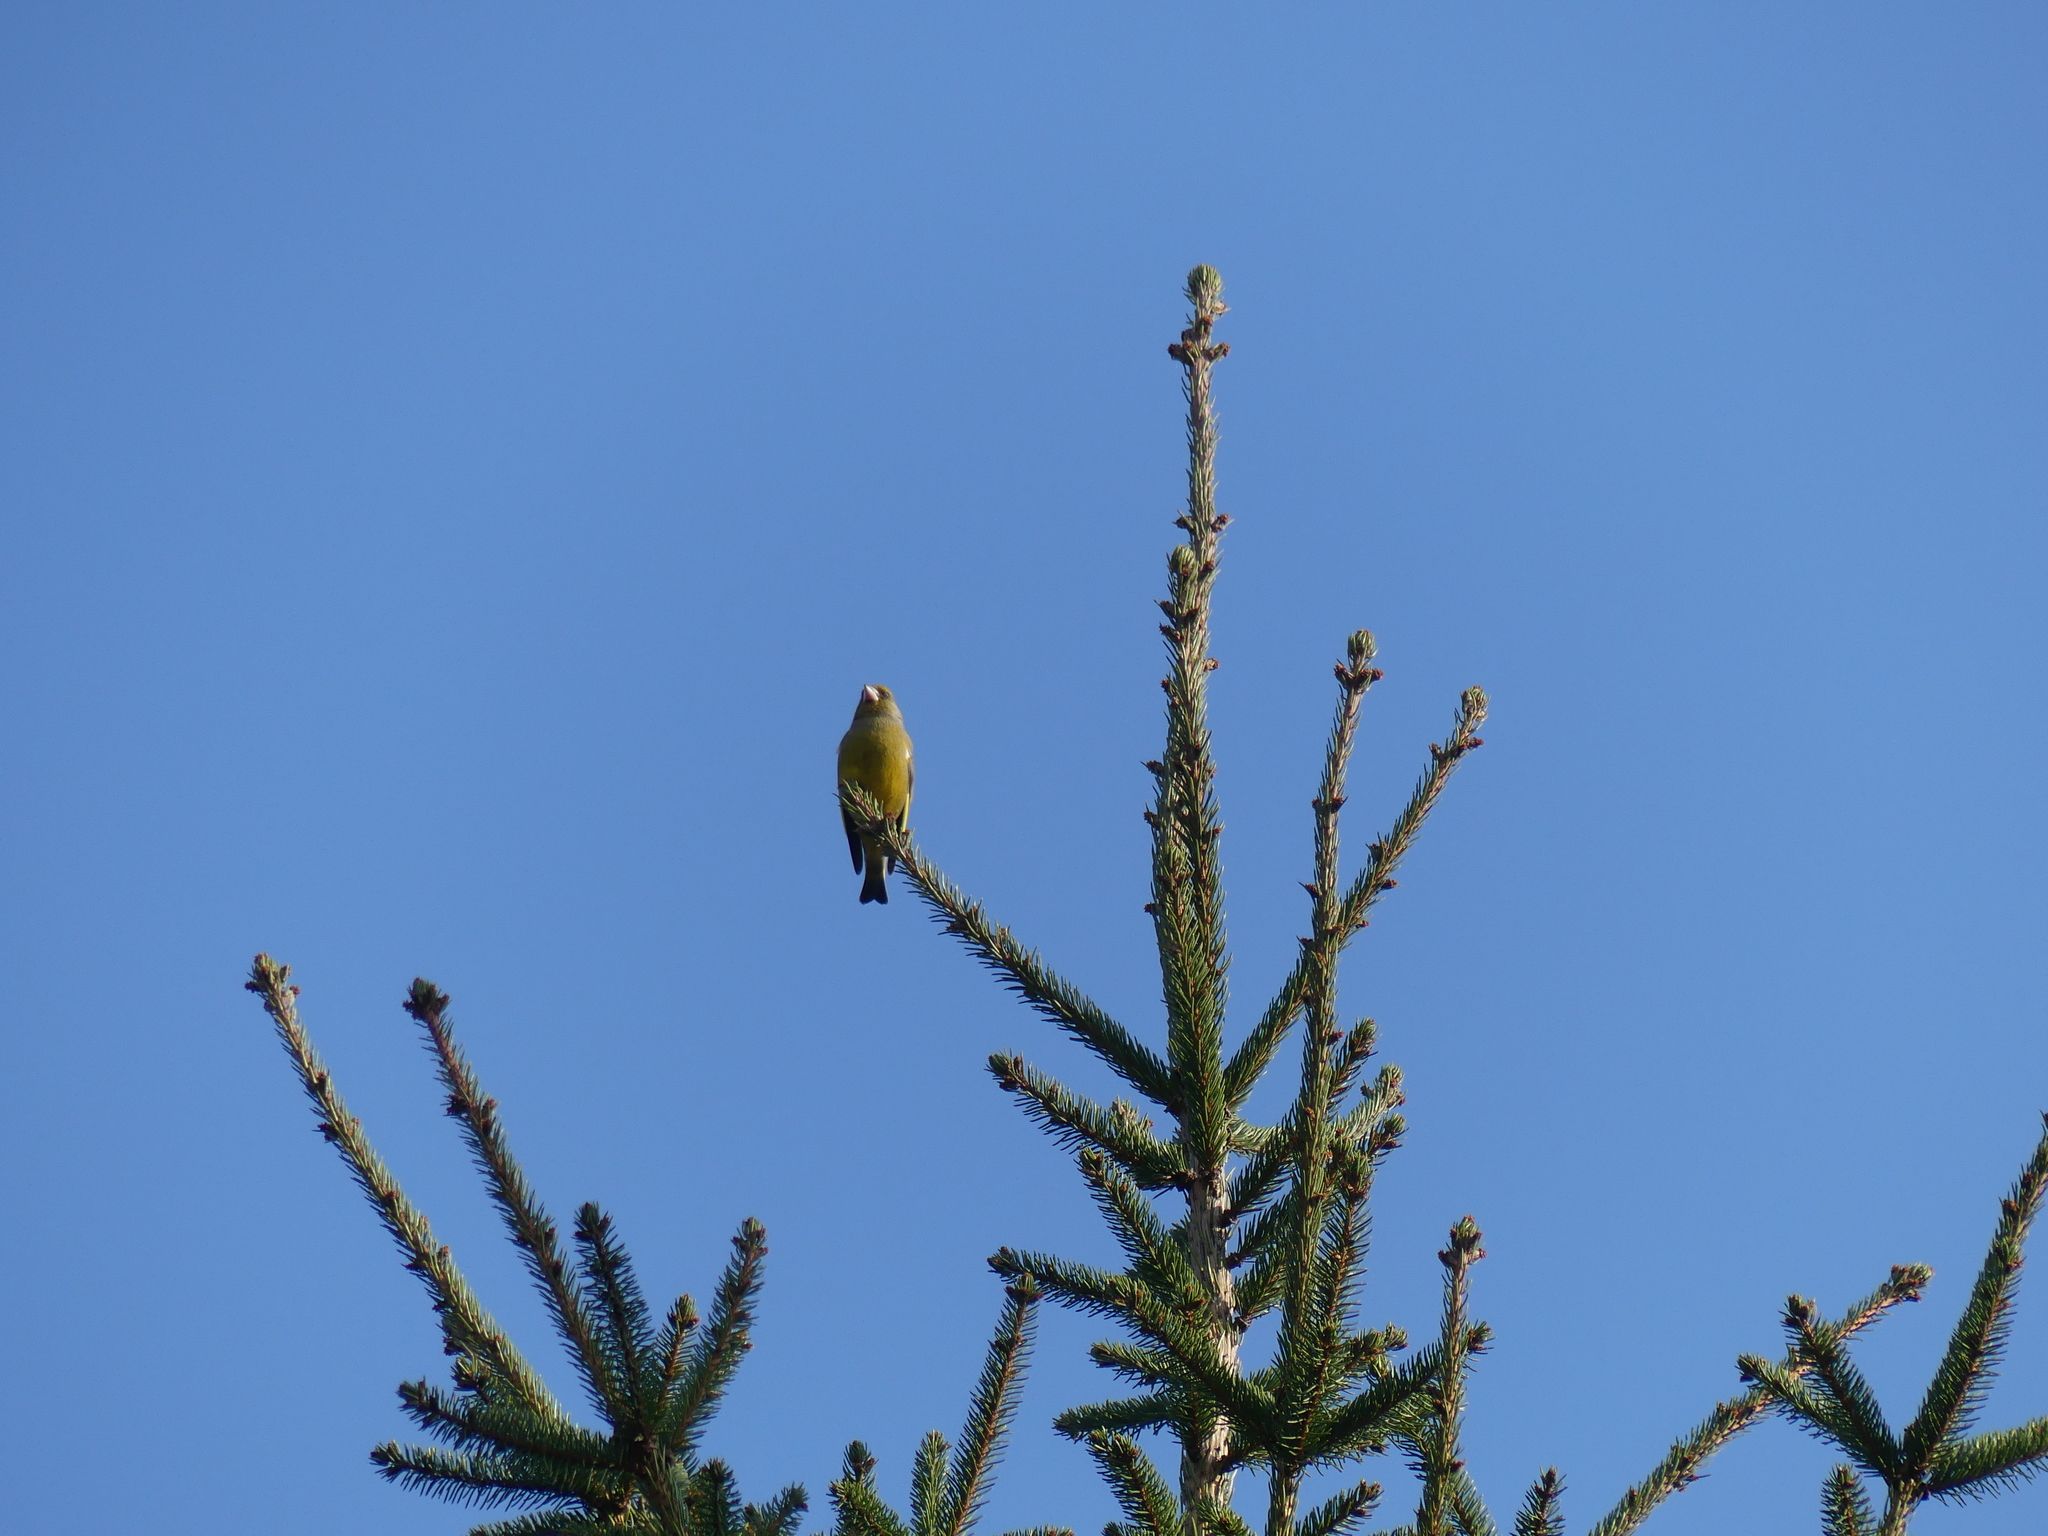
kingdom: Plantae
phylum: Tracheophyta
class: Liliopsida
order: Poales
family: Poaceae
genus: Chloris
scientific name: Chloris chloris
